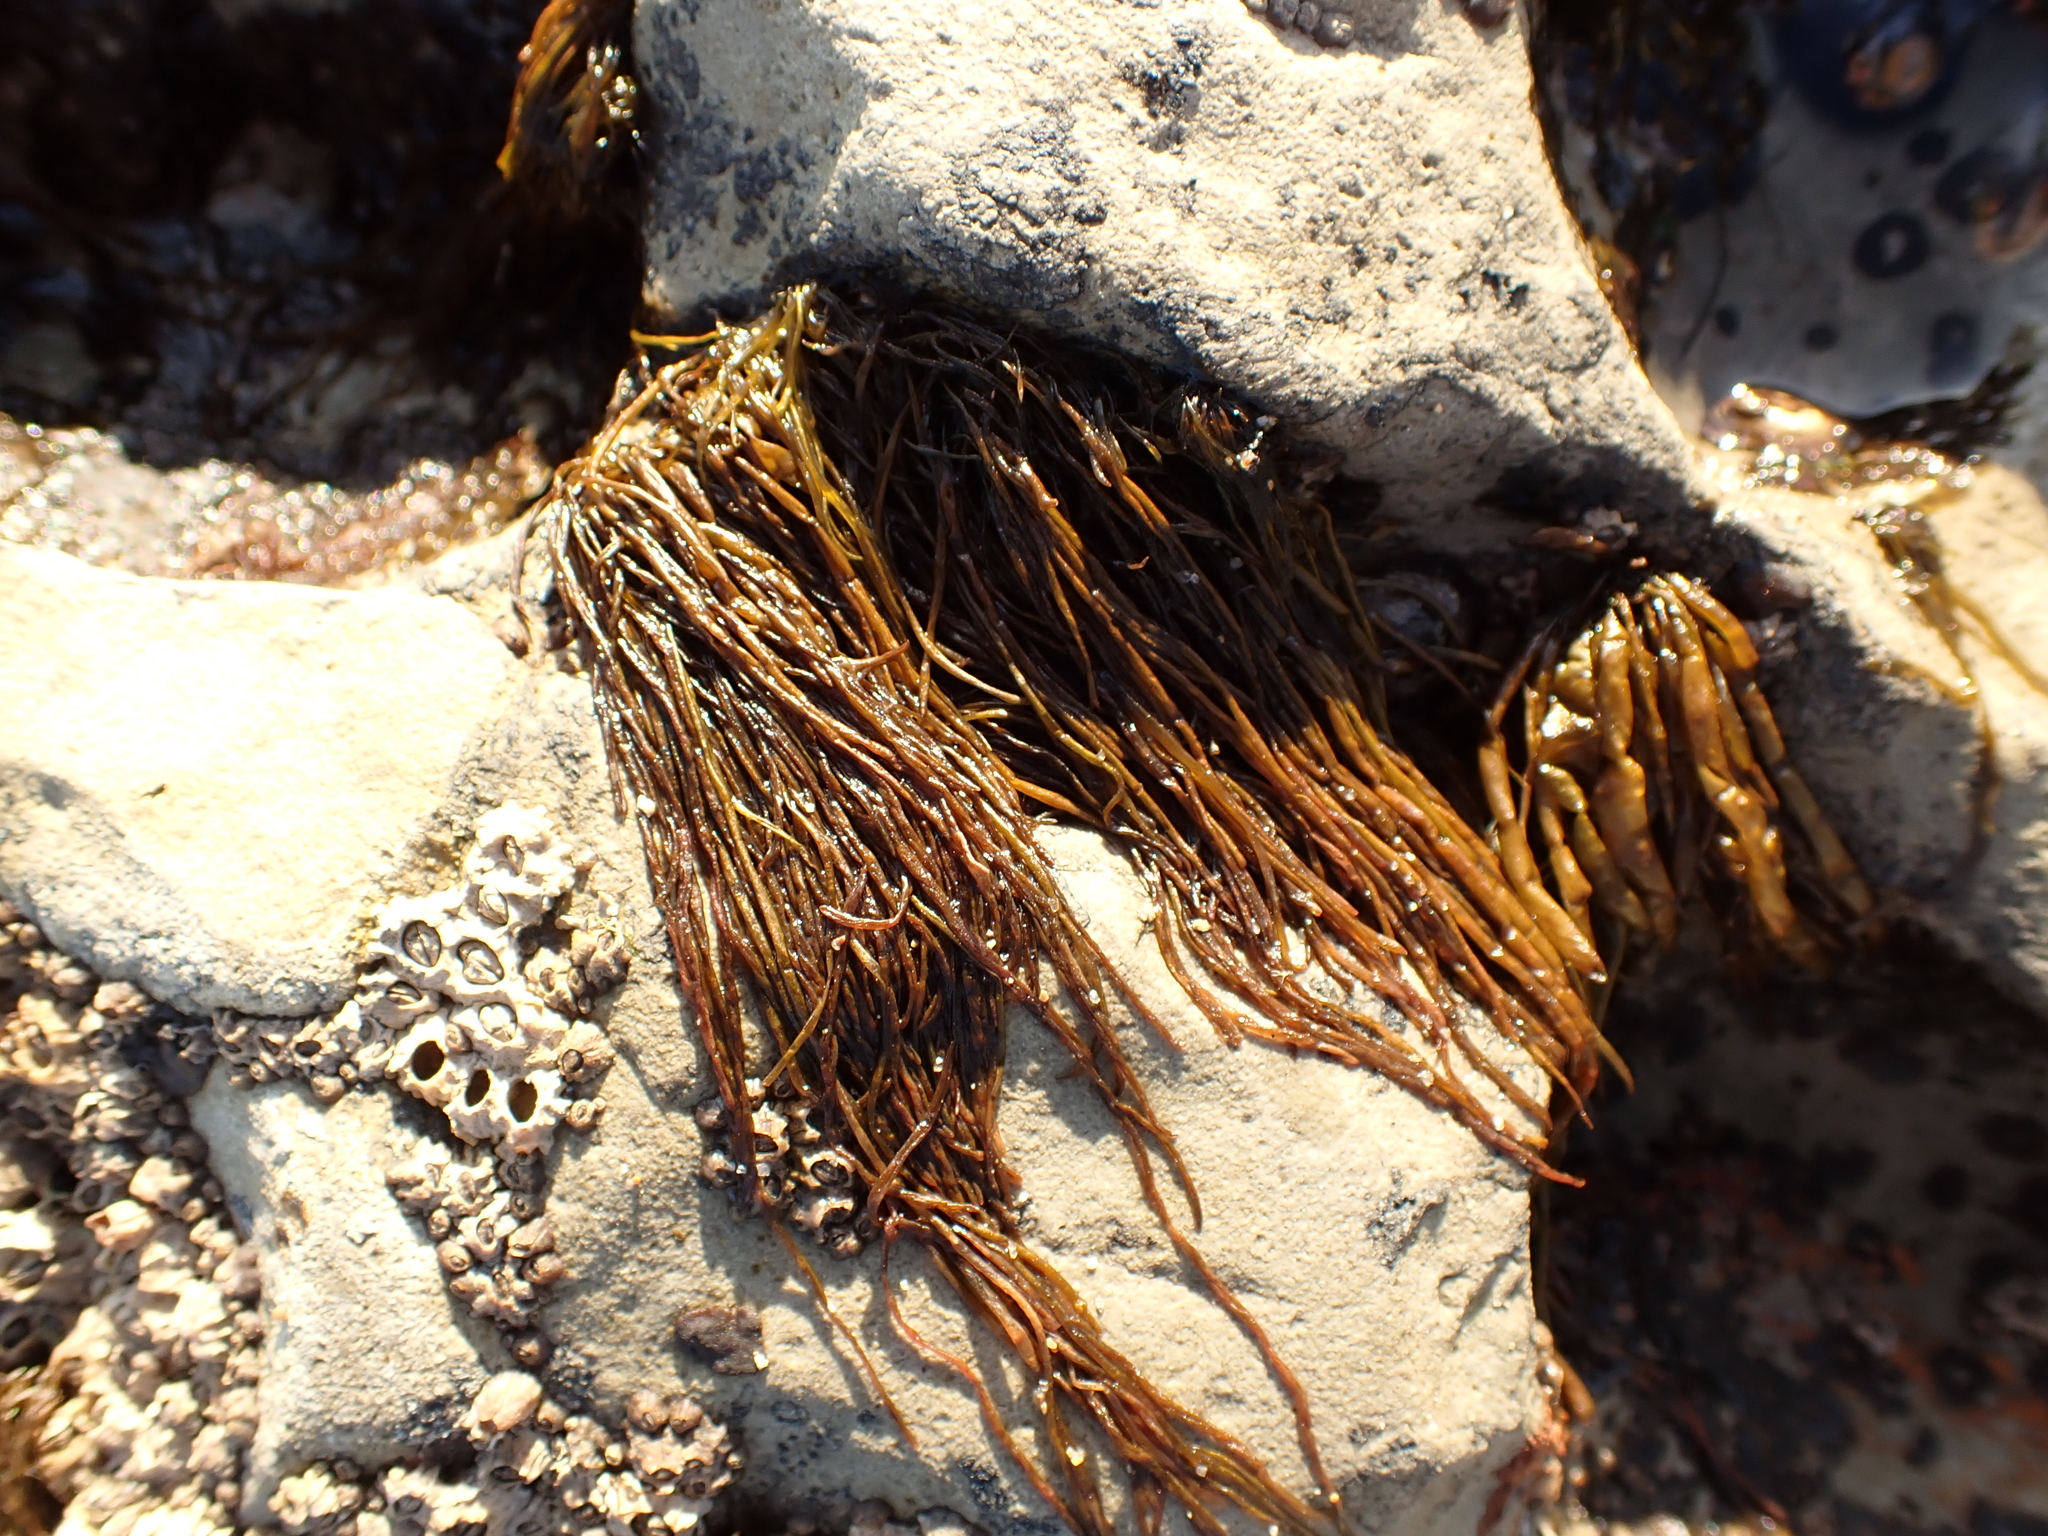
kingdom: Chromista
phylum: Ochrophyta
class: Phaeophyceae
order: Scytosiphonales
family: Scytosiphonaceae
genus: Scytosiphon
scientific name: Scytosiphon lomentaria
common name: Beanweed
